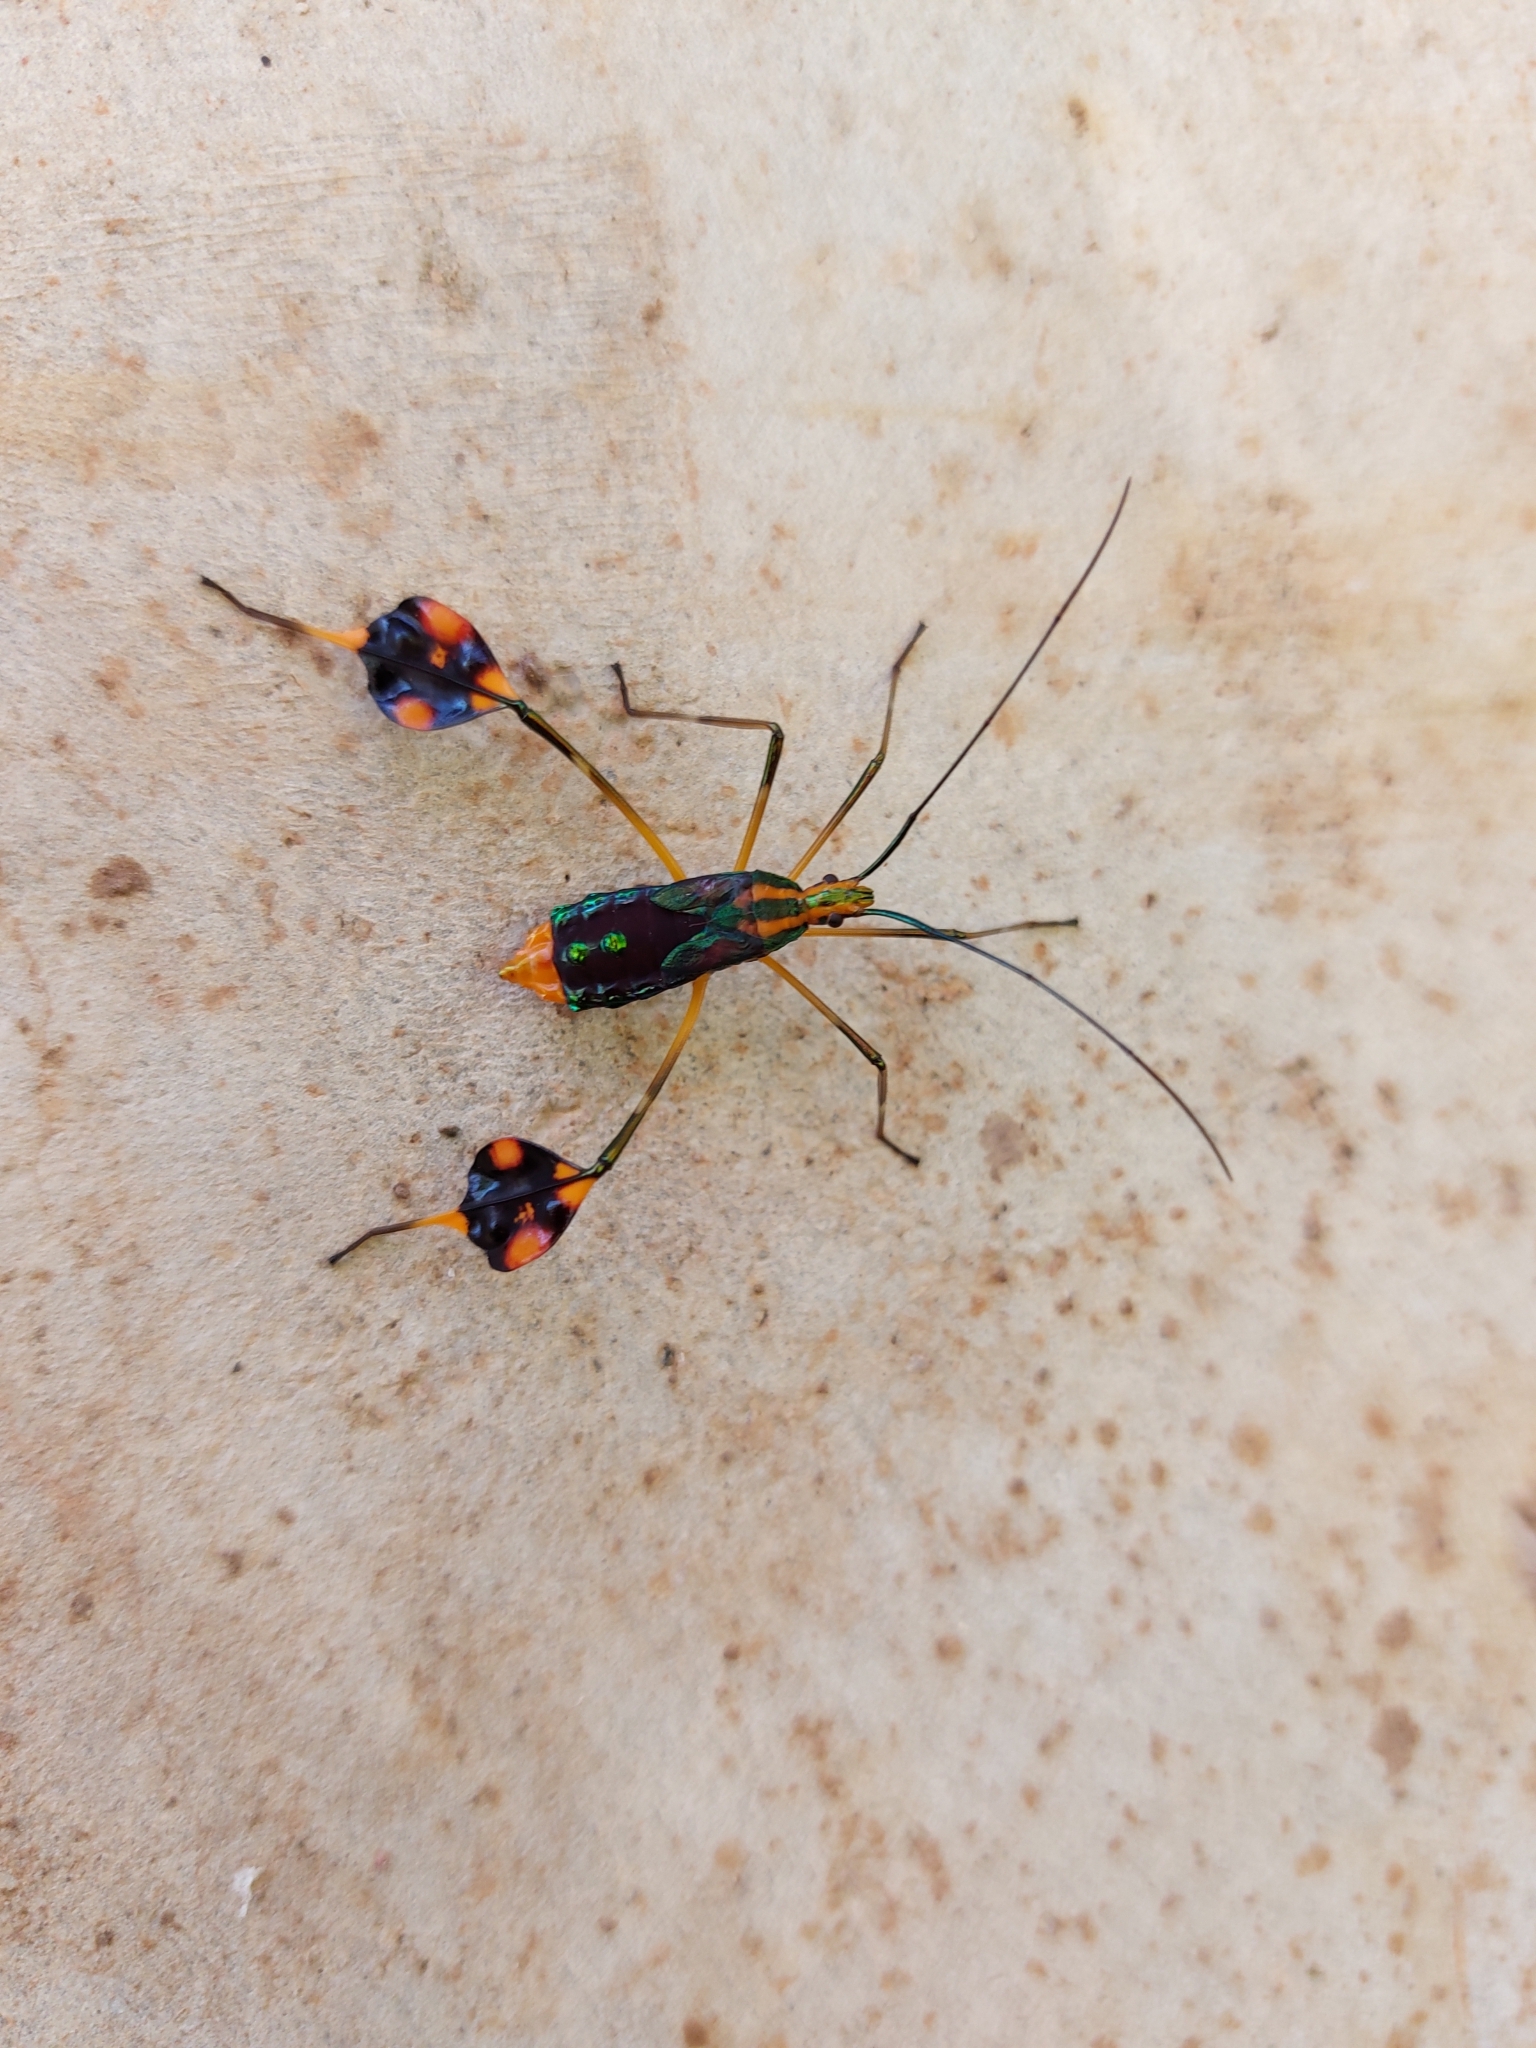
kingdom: Animalia
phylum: Arthropoda
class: Insecta
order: Hemiptera
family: Coreidae
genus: Diactor
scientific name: Diactor bogotanus
